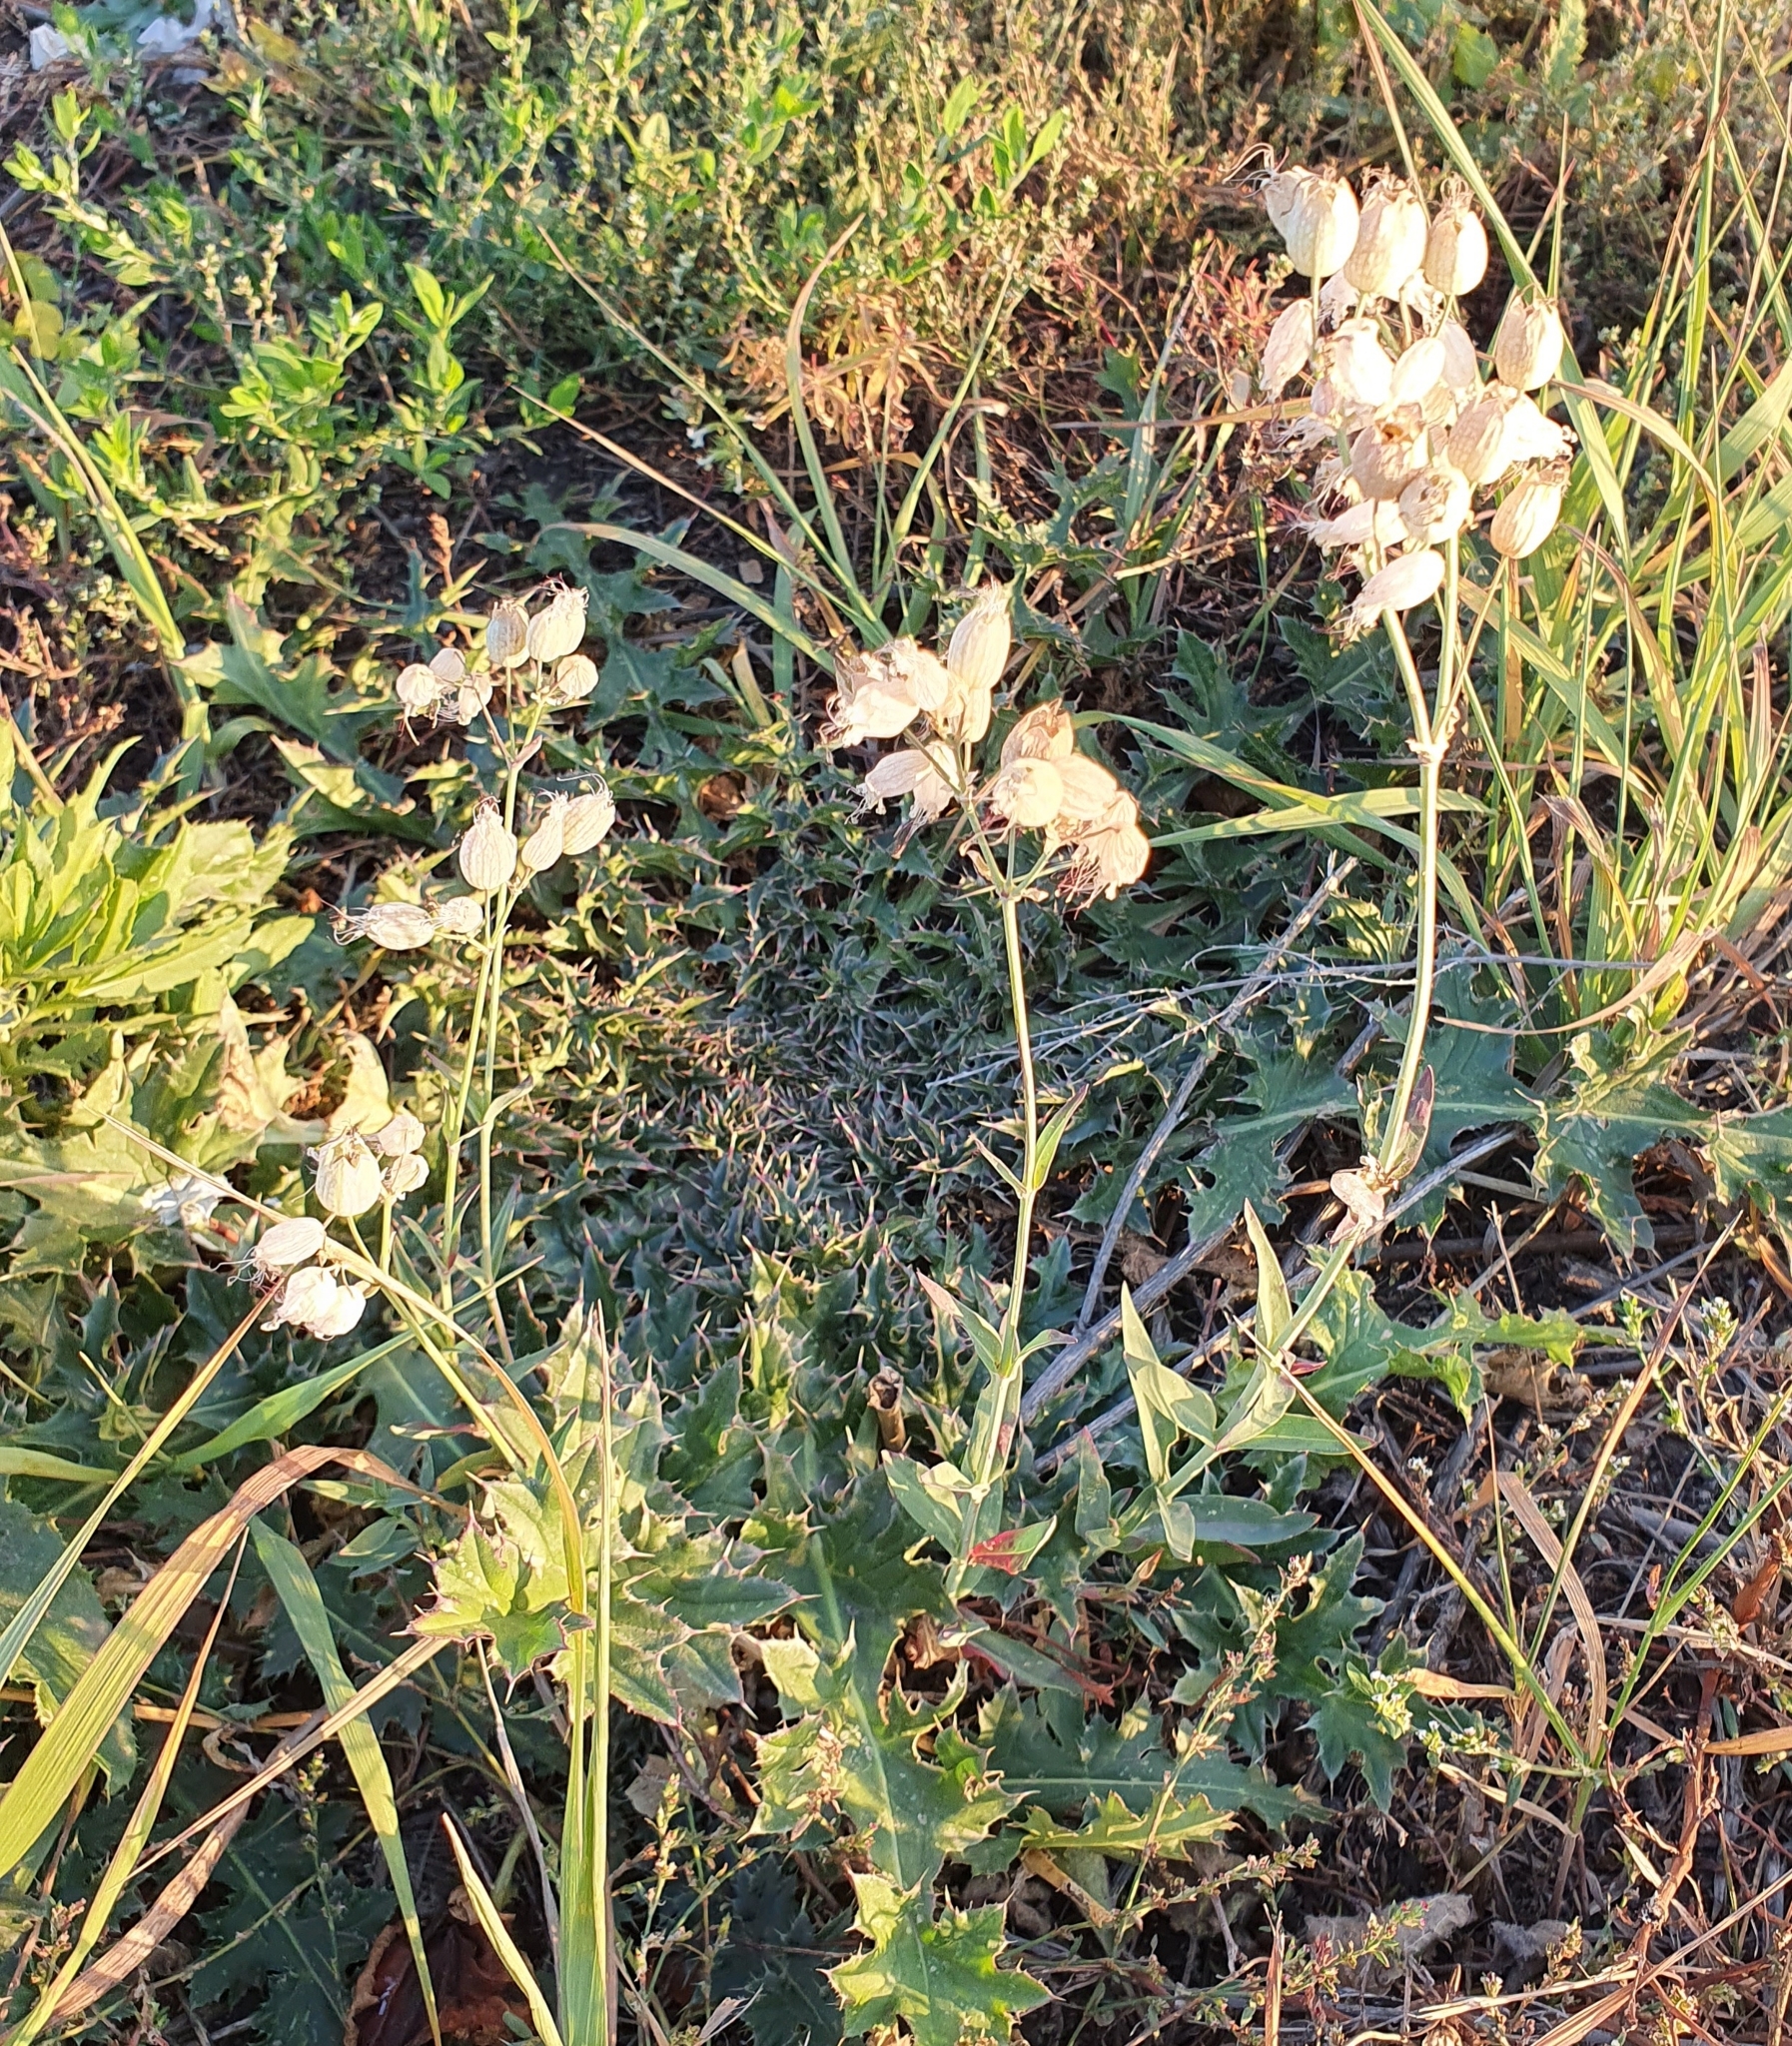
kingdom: Plantae
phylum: Tracheophyta
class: Magnoliopsida
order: Caryophyllales
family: Caryophyllaceae
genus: Silene
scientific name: Silene vulgaris
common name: Bladder campion
